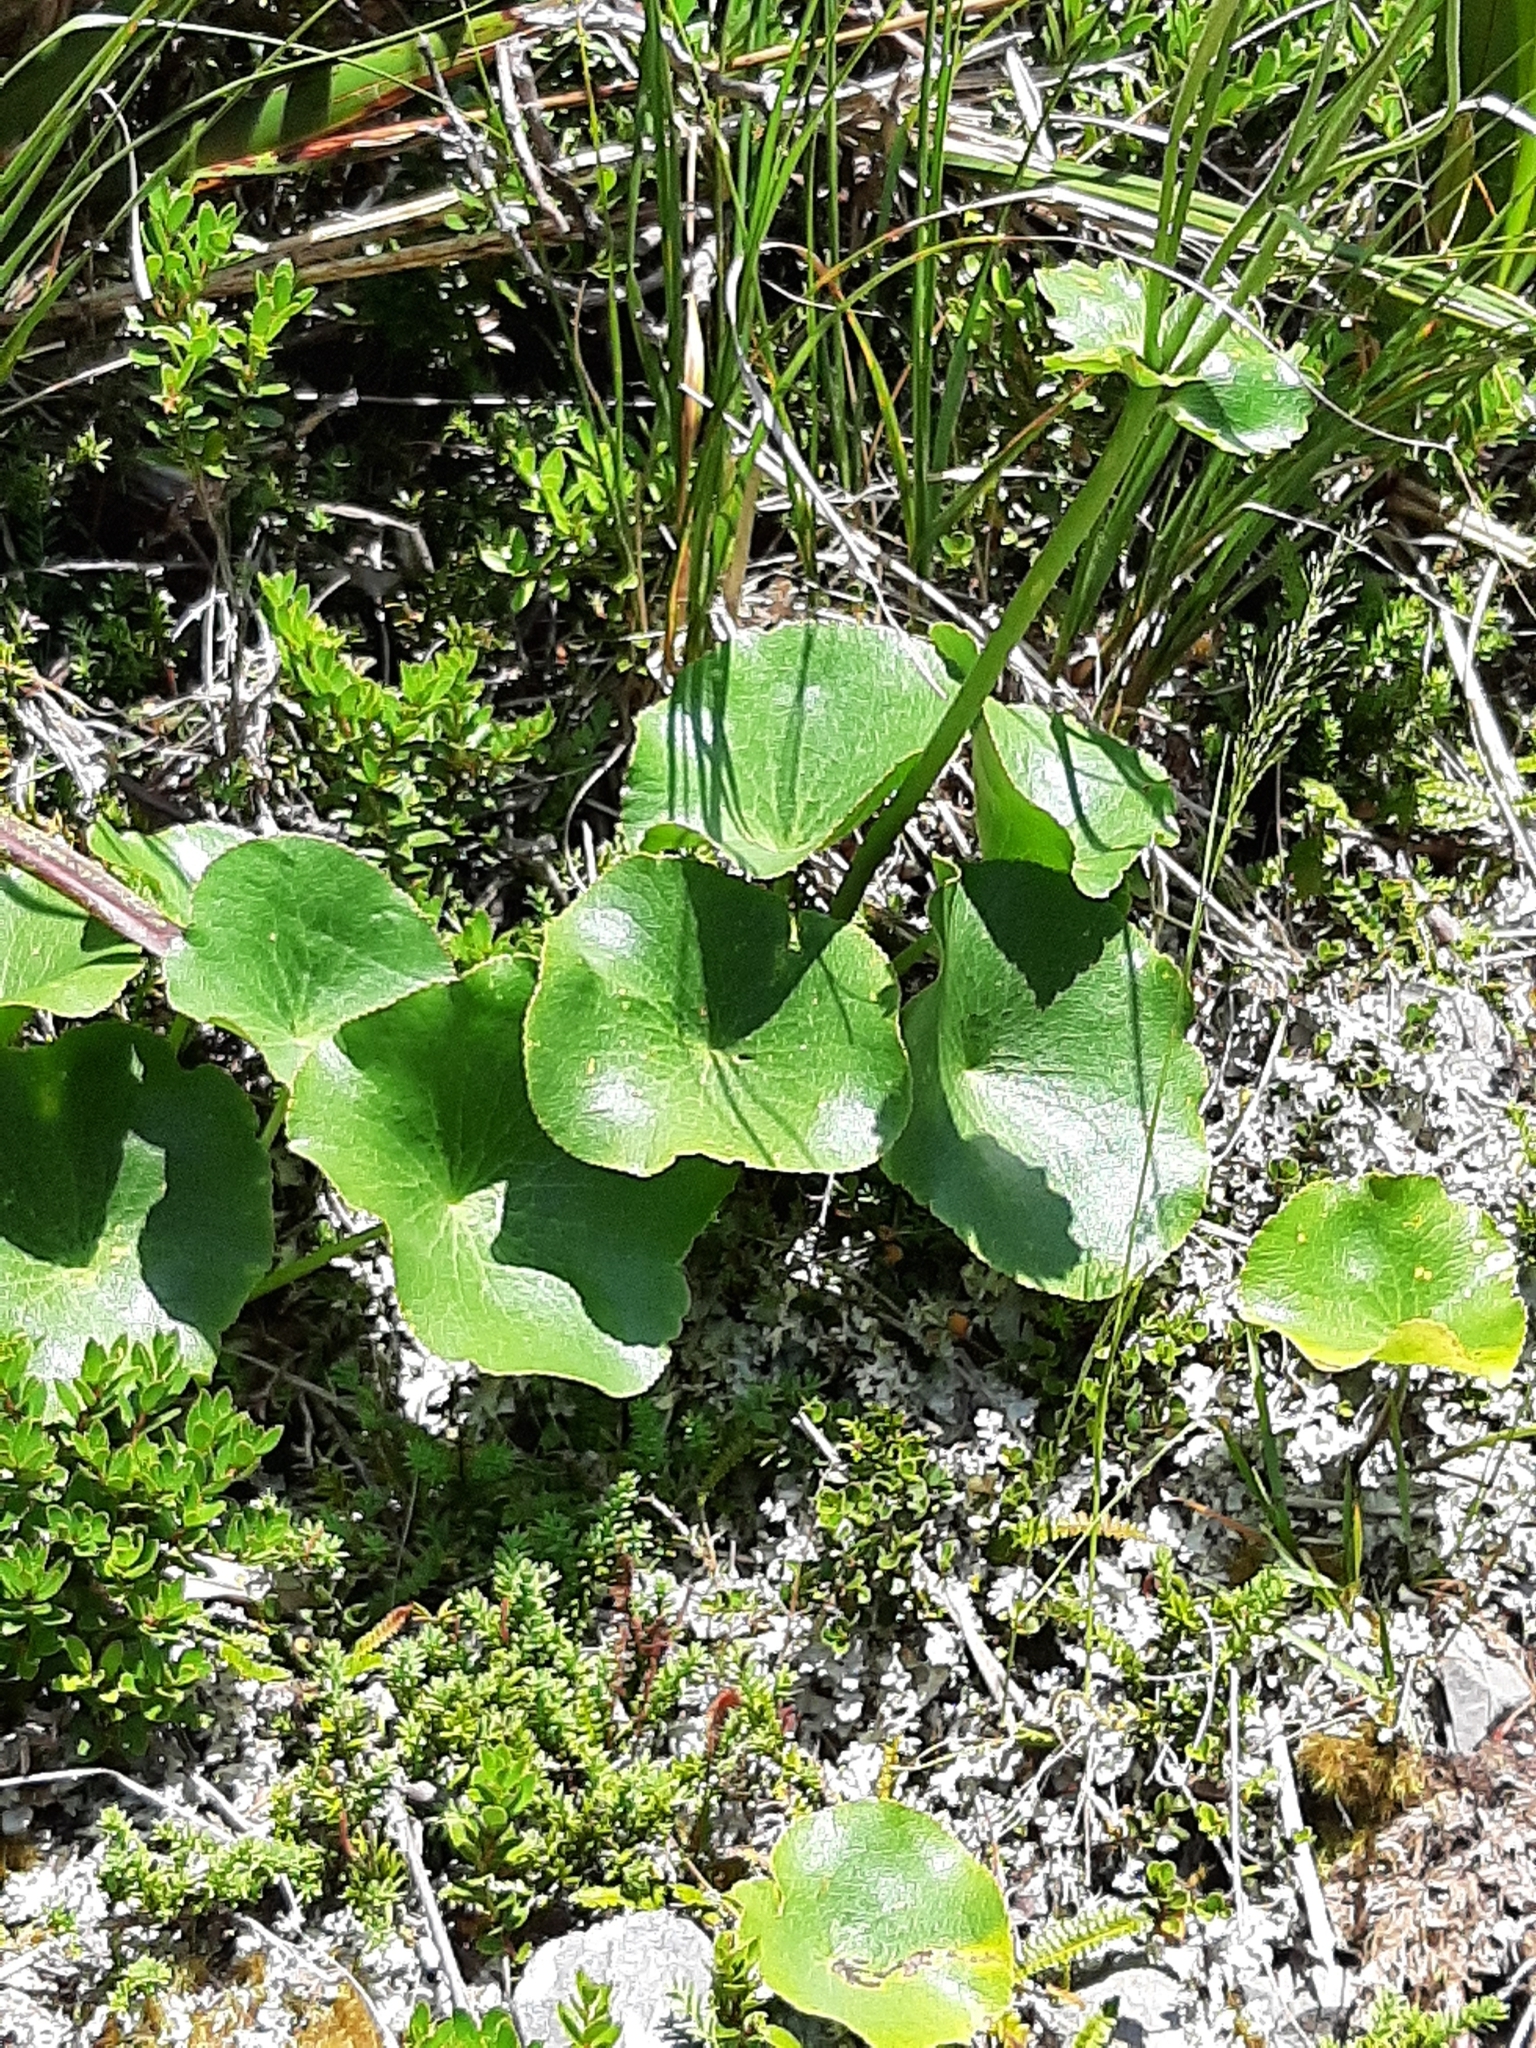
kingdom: Plantae
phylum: Tracheophyta
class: Magnoliopsida
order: Ranunculales
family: Ranunculaceae
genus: Ranunculus
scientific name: Ranunculus lyallii
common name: Mountain-lily
